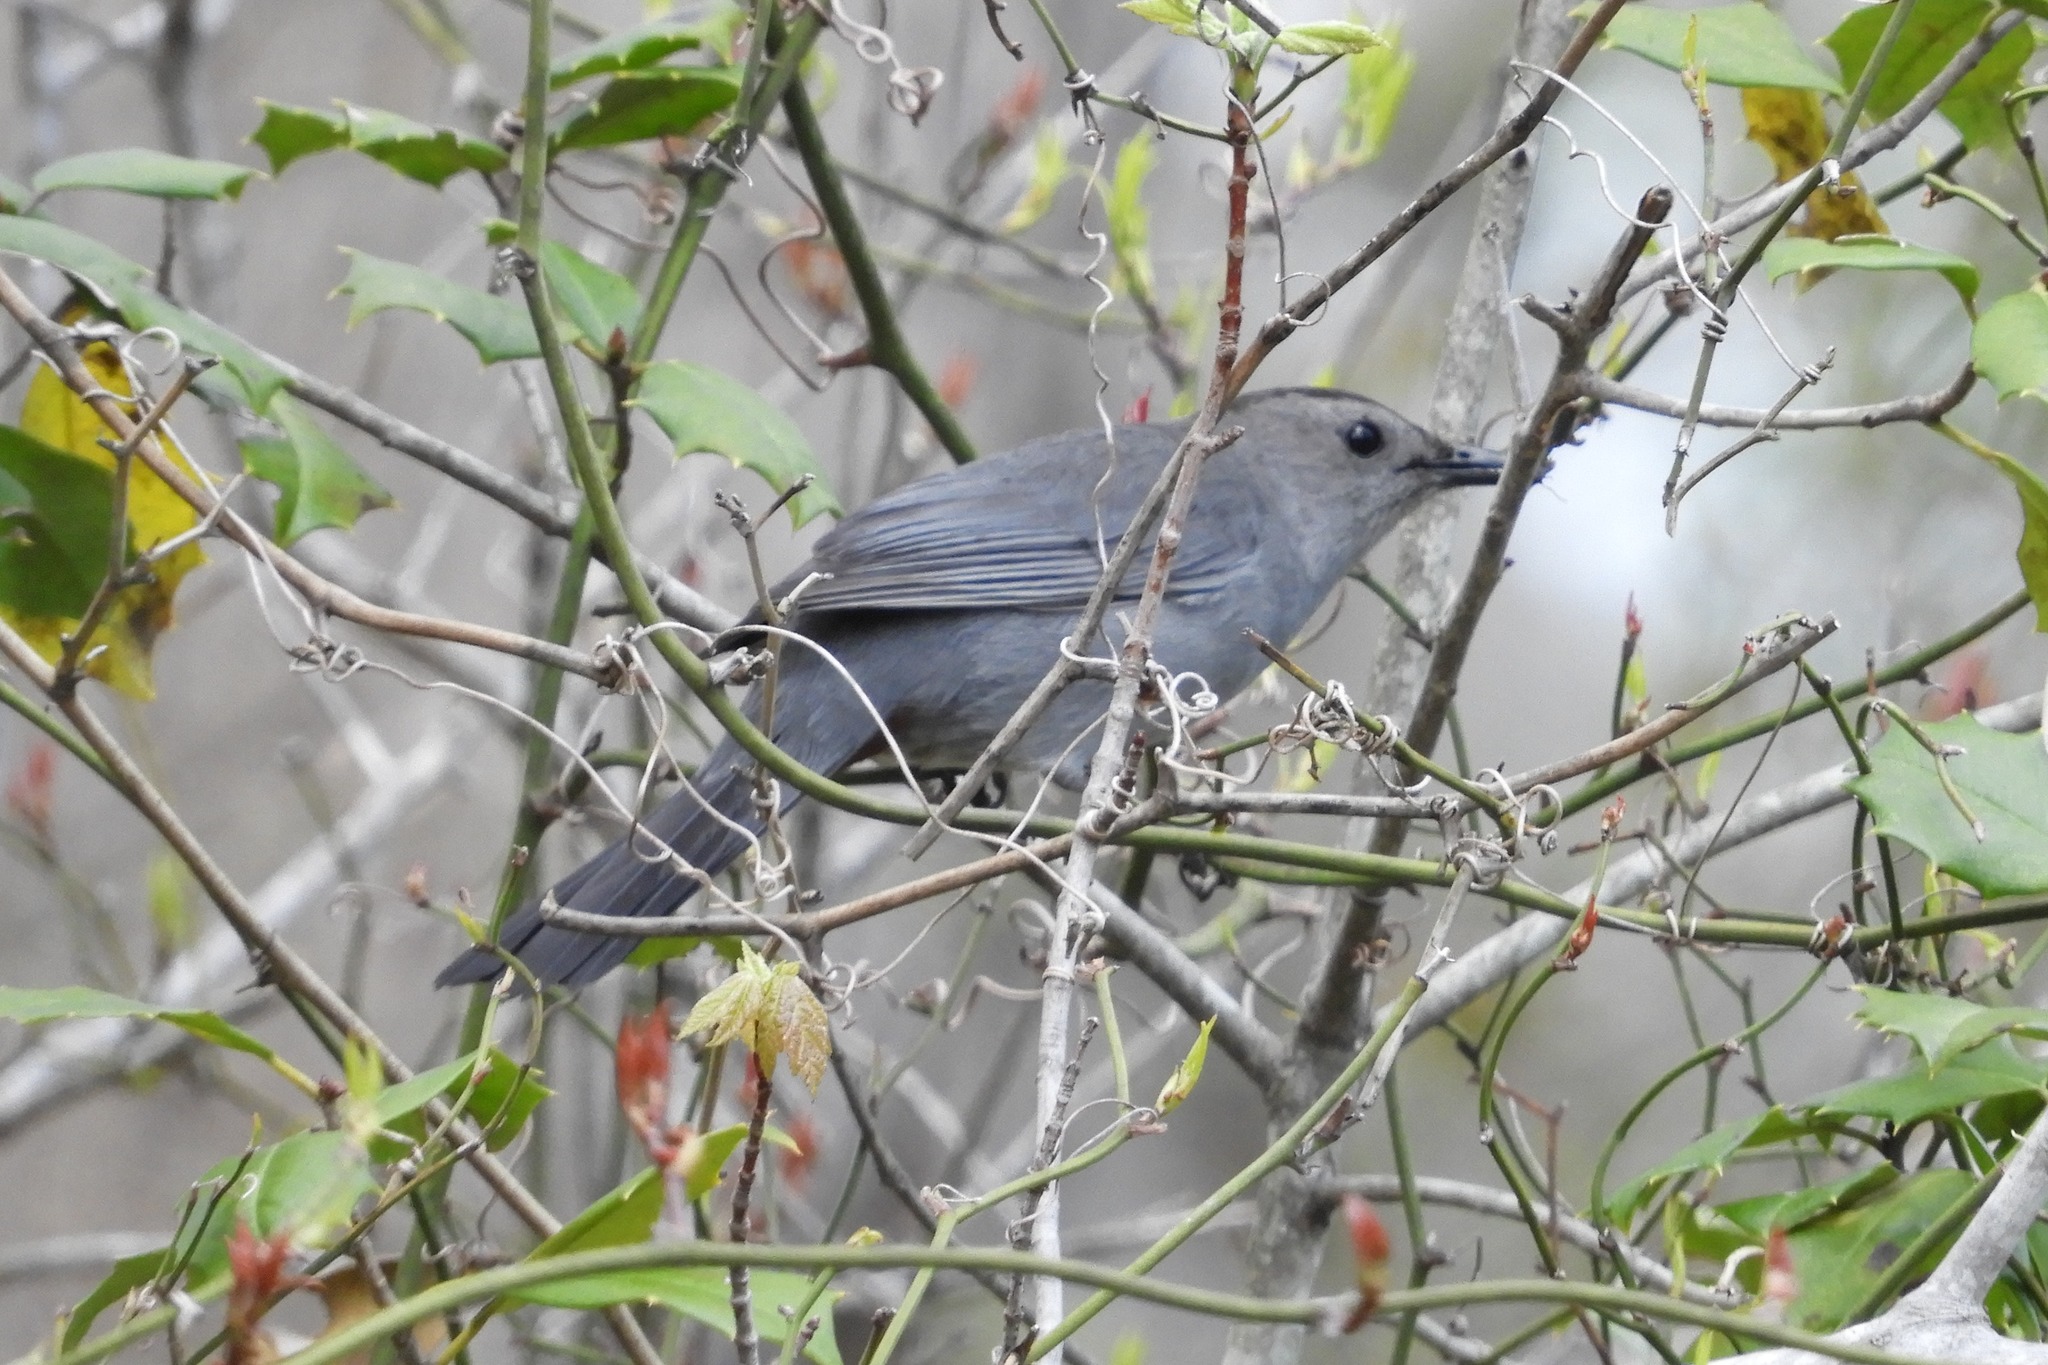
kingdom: Animalia
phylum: Chordata
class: Aves
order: Passeriformes
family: Mimidae
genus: Dumetella
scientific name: Dumetella carolinensis
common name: Gray catbird
